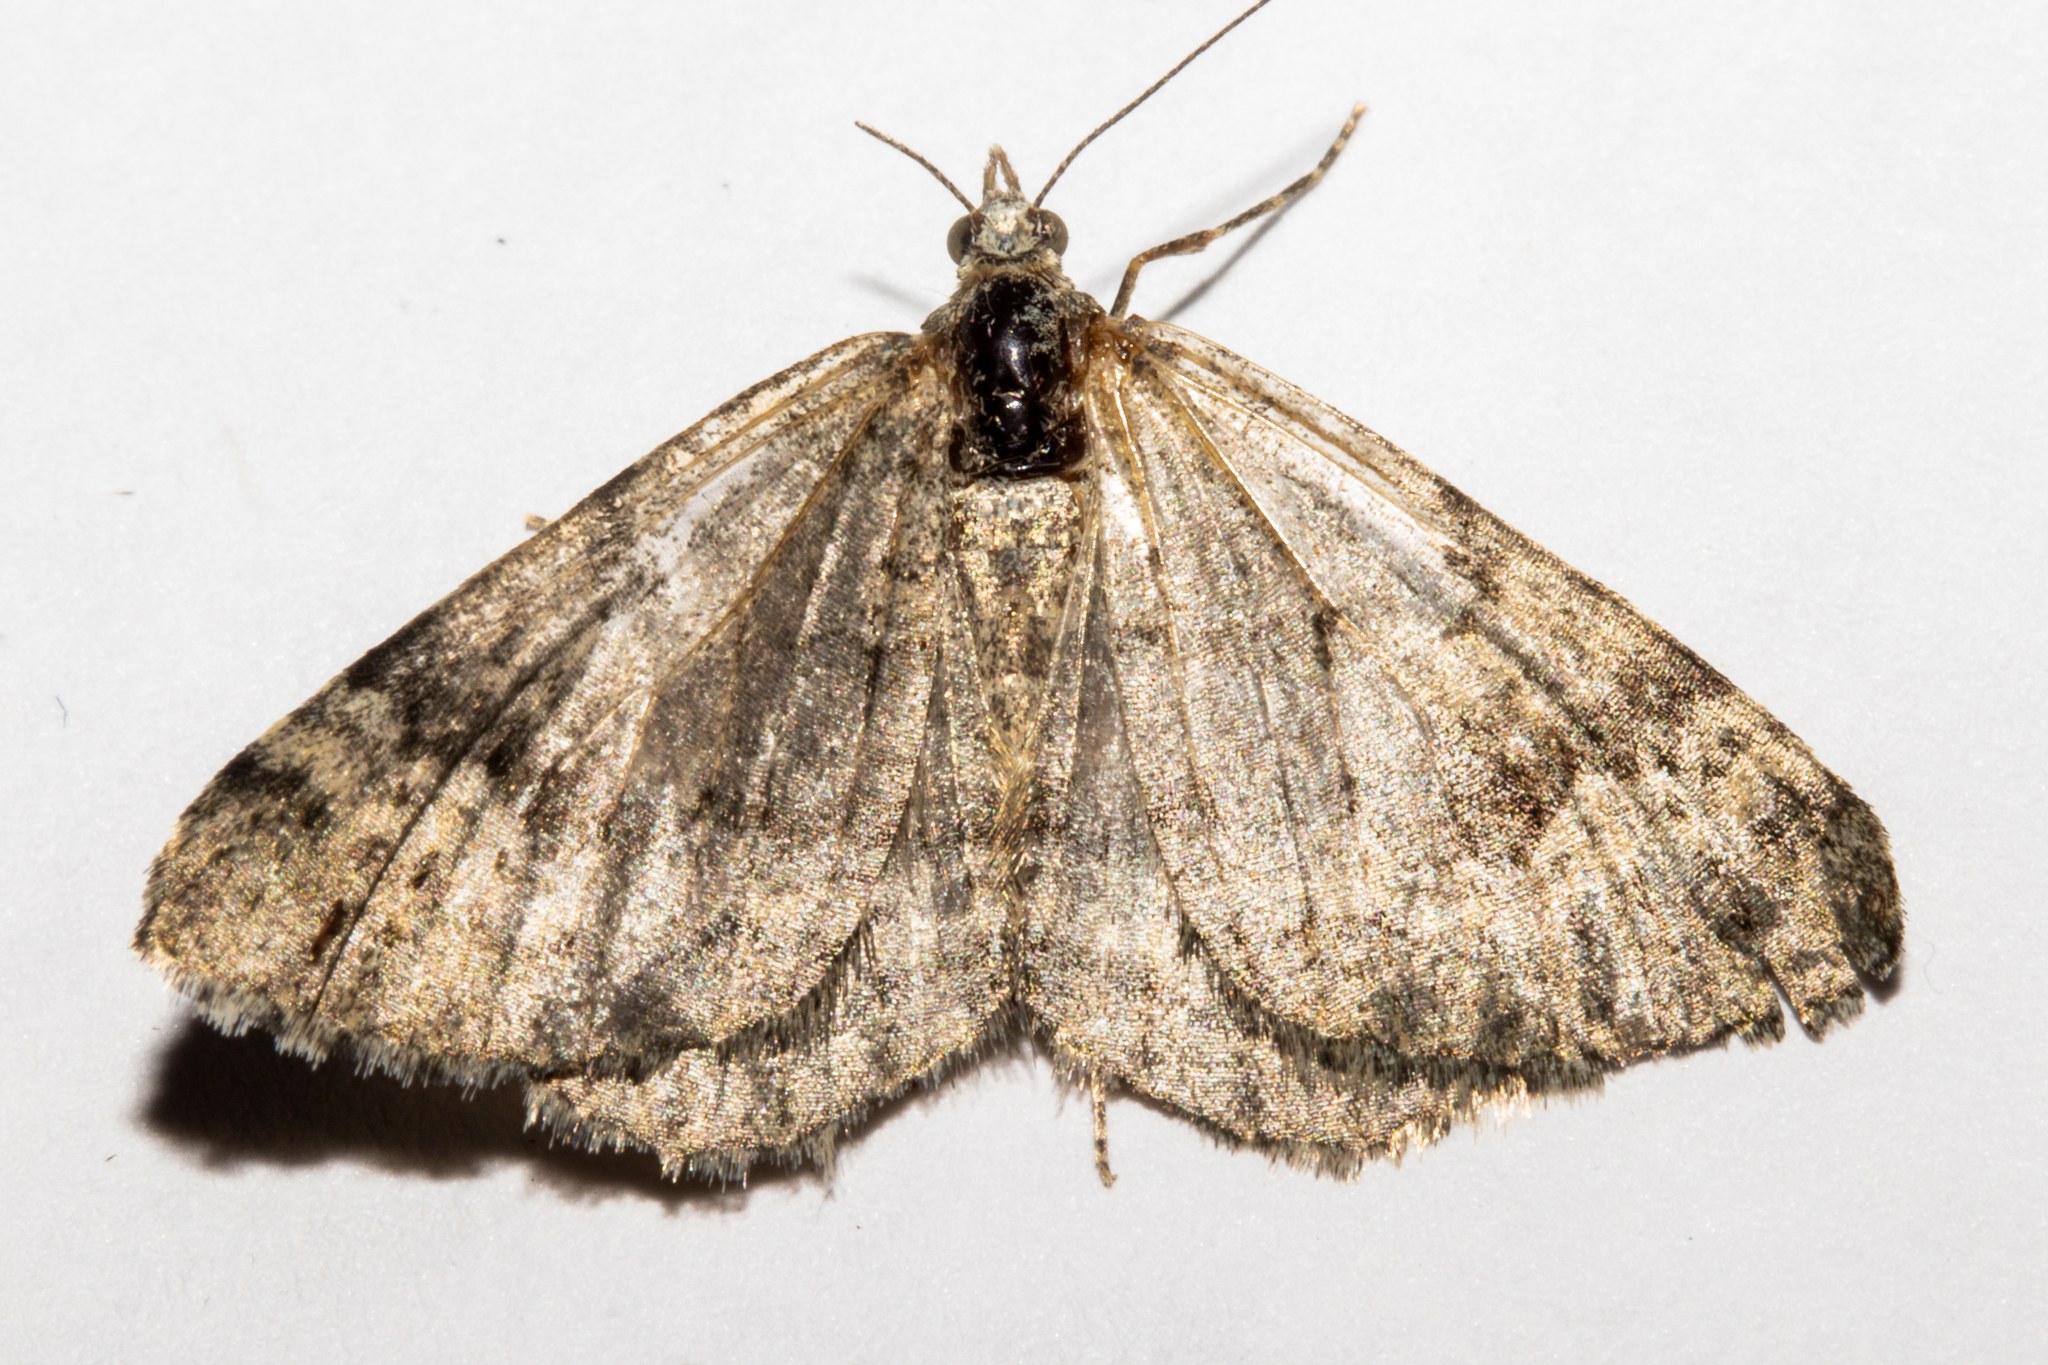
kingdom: Animalia
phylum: Arthropoda
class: Insecta
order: Lepidoptera
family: Geometridae
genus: Helastia
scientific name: Helastia corcularia
